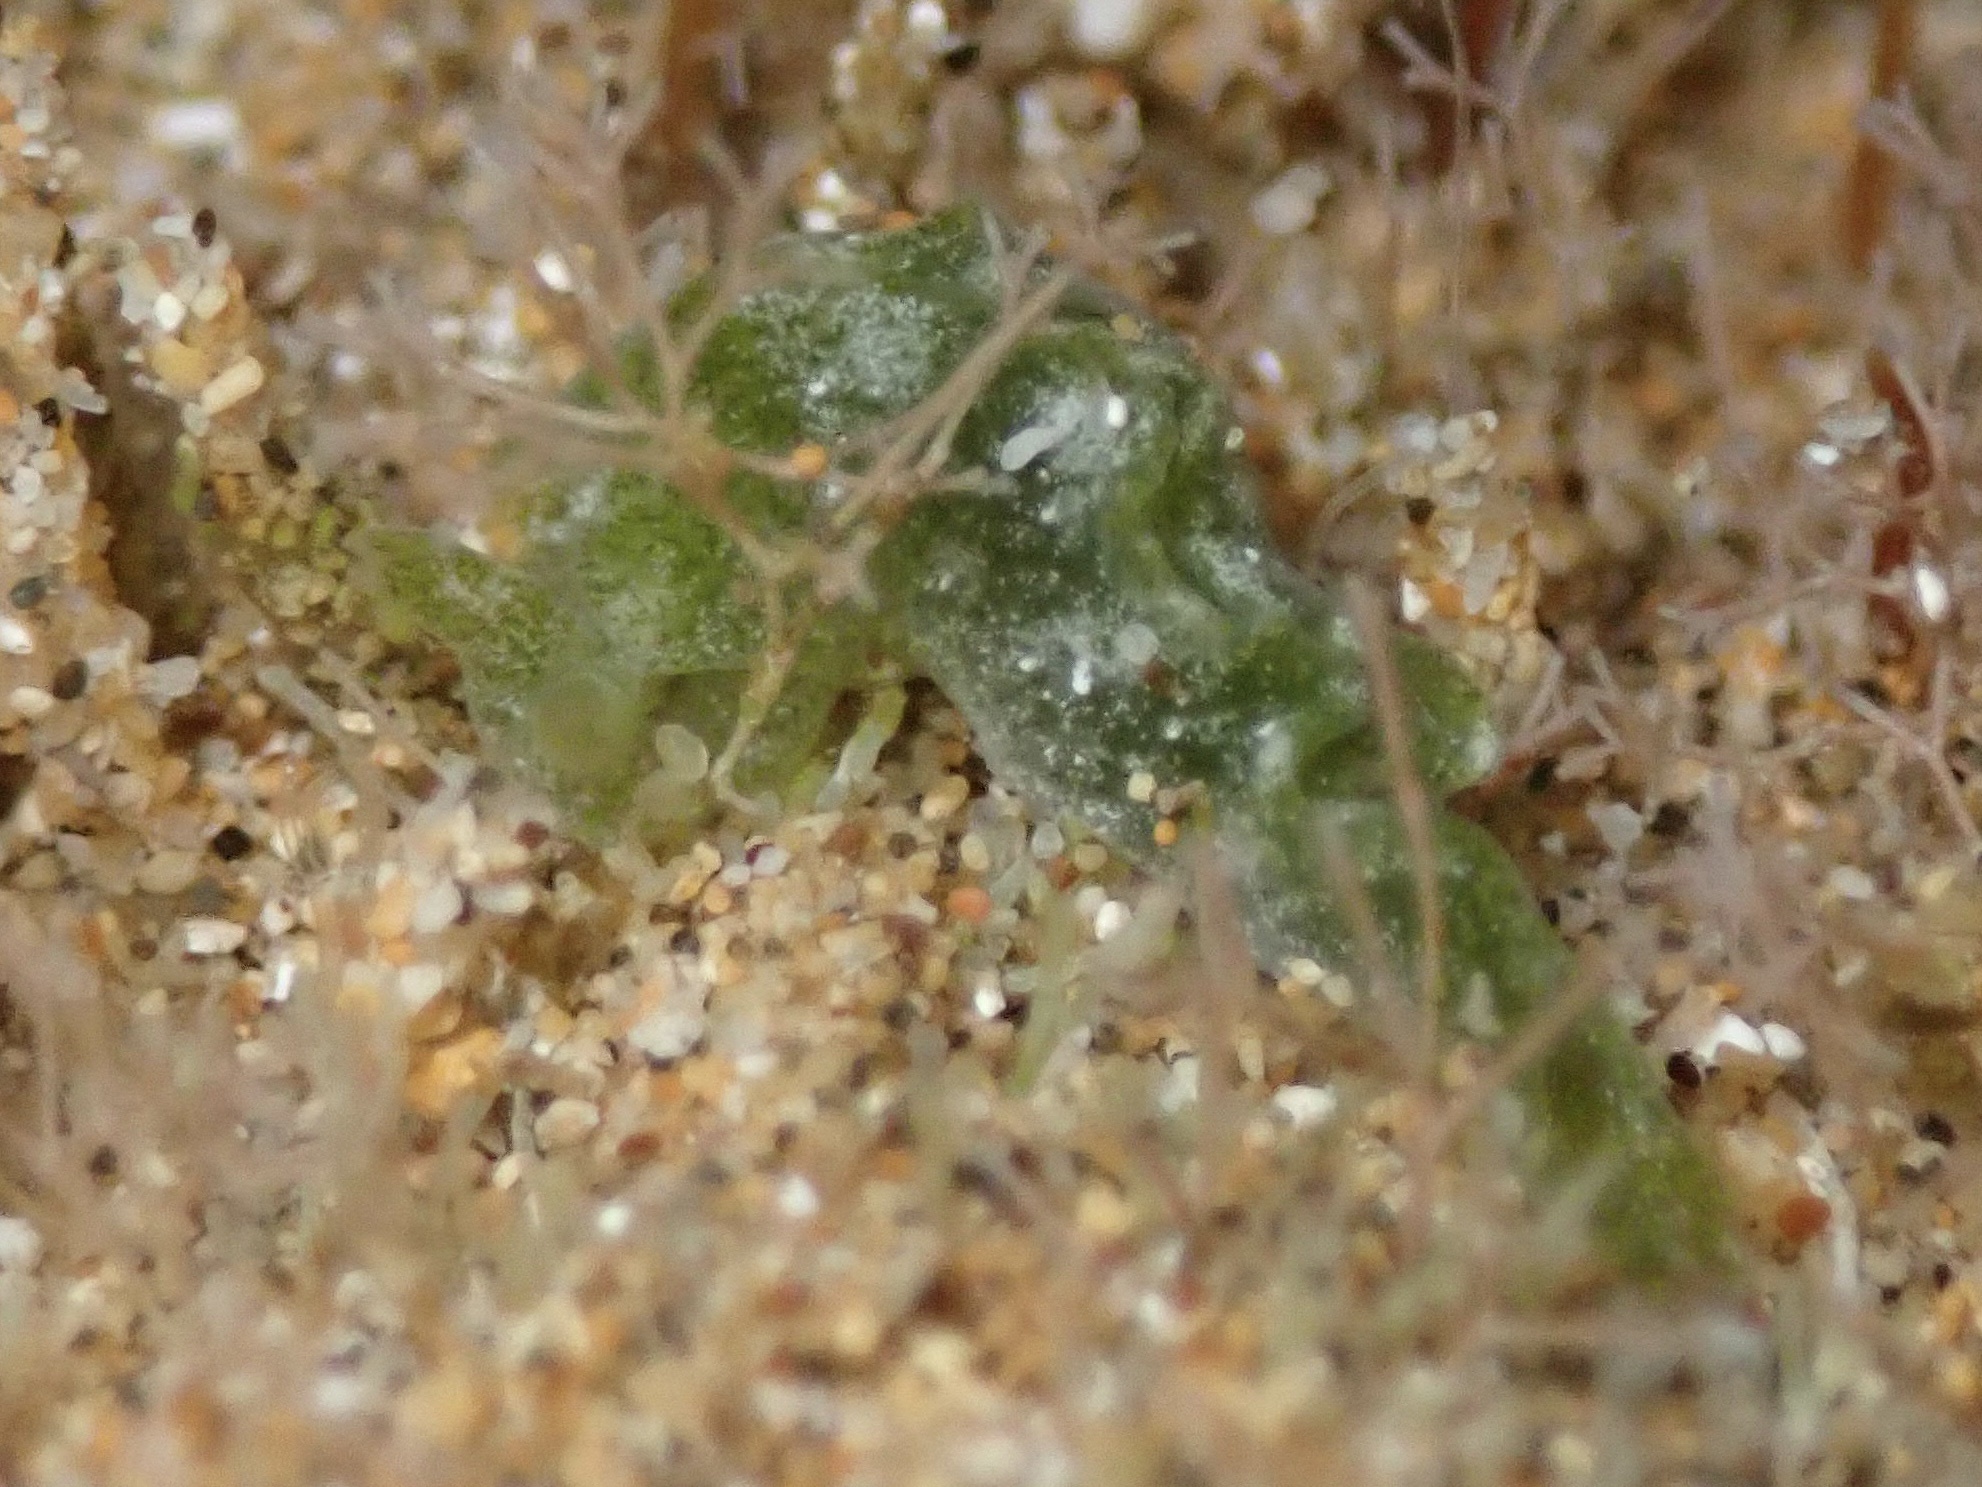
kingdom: Animalia
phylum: Mollusca
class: Gastropoda
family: Plakobranchidae
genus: Elysia
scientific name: Elysia nealae
